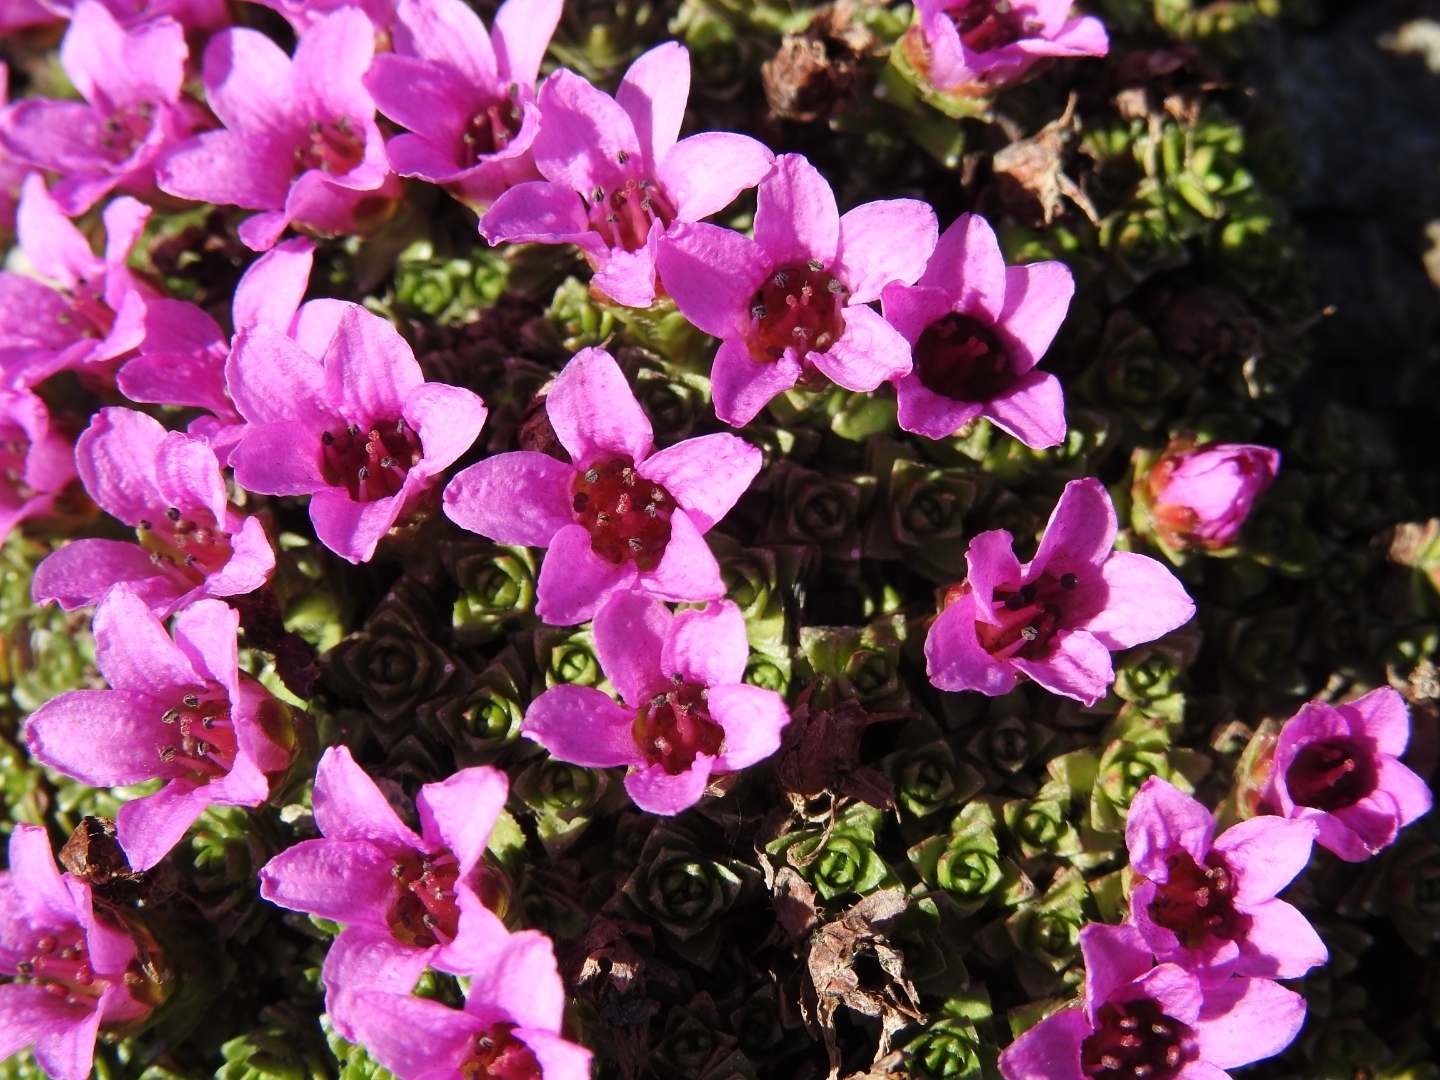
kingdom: Plantae
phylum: Tracheophyta
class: Magnoliopsida
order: Saxifragales
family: Saxifragaceae
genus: Saxifraga
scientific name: Saxifraga oppositifolia
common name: Purple saxifrage
